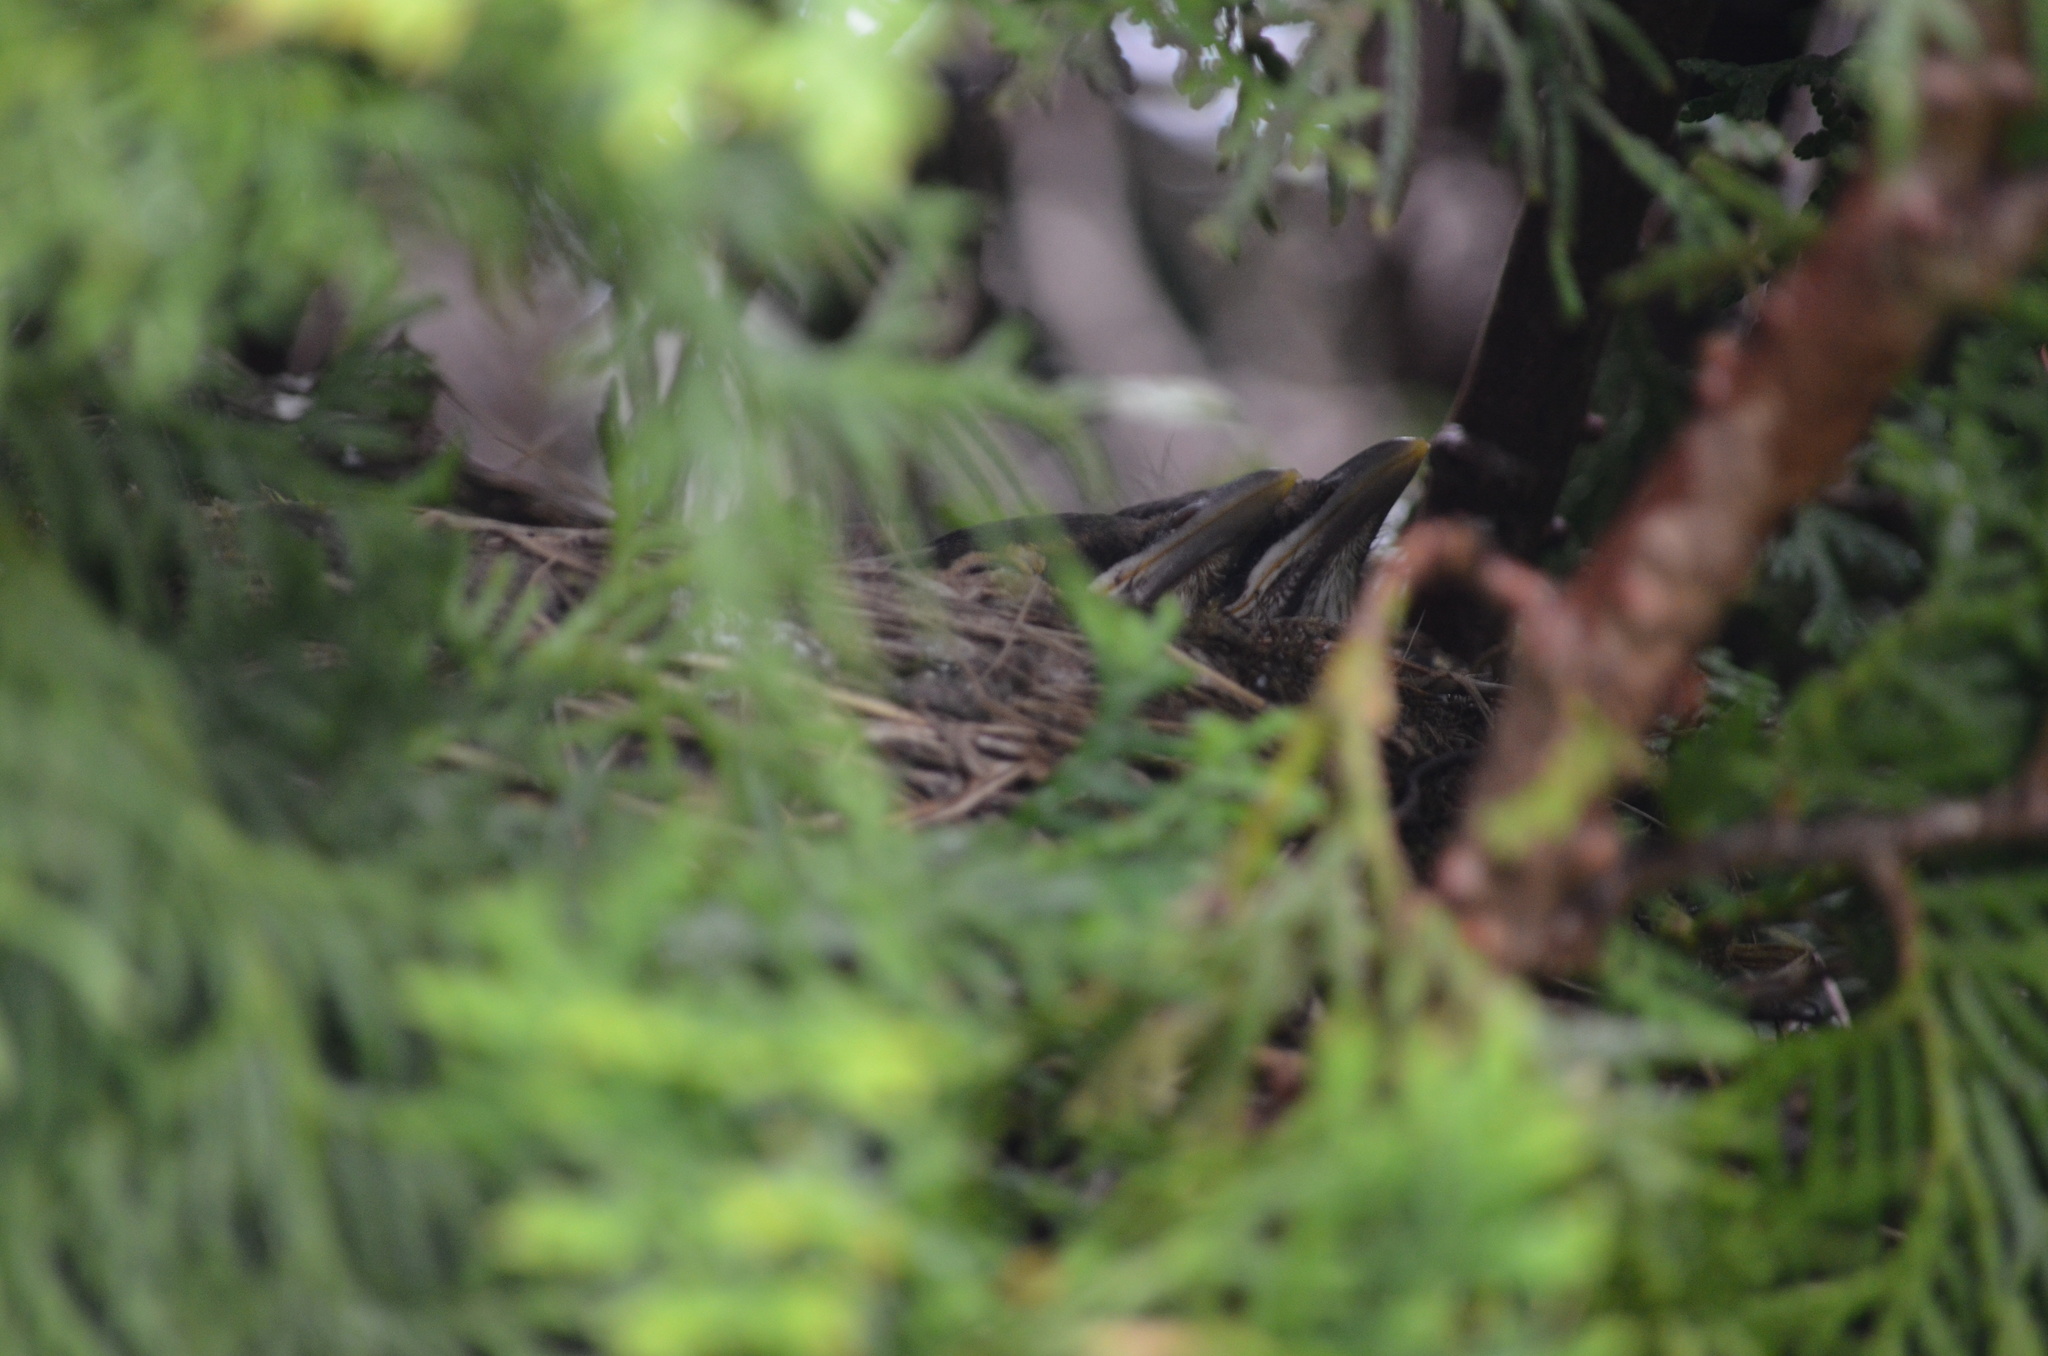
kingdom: Animalia
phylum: Chordata
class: Aves
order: Passeriformes
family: Turdidae
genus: Turdus
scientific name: Turdus migratorius
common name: American robin
